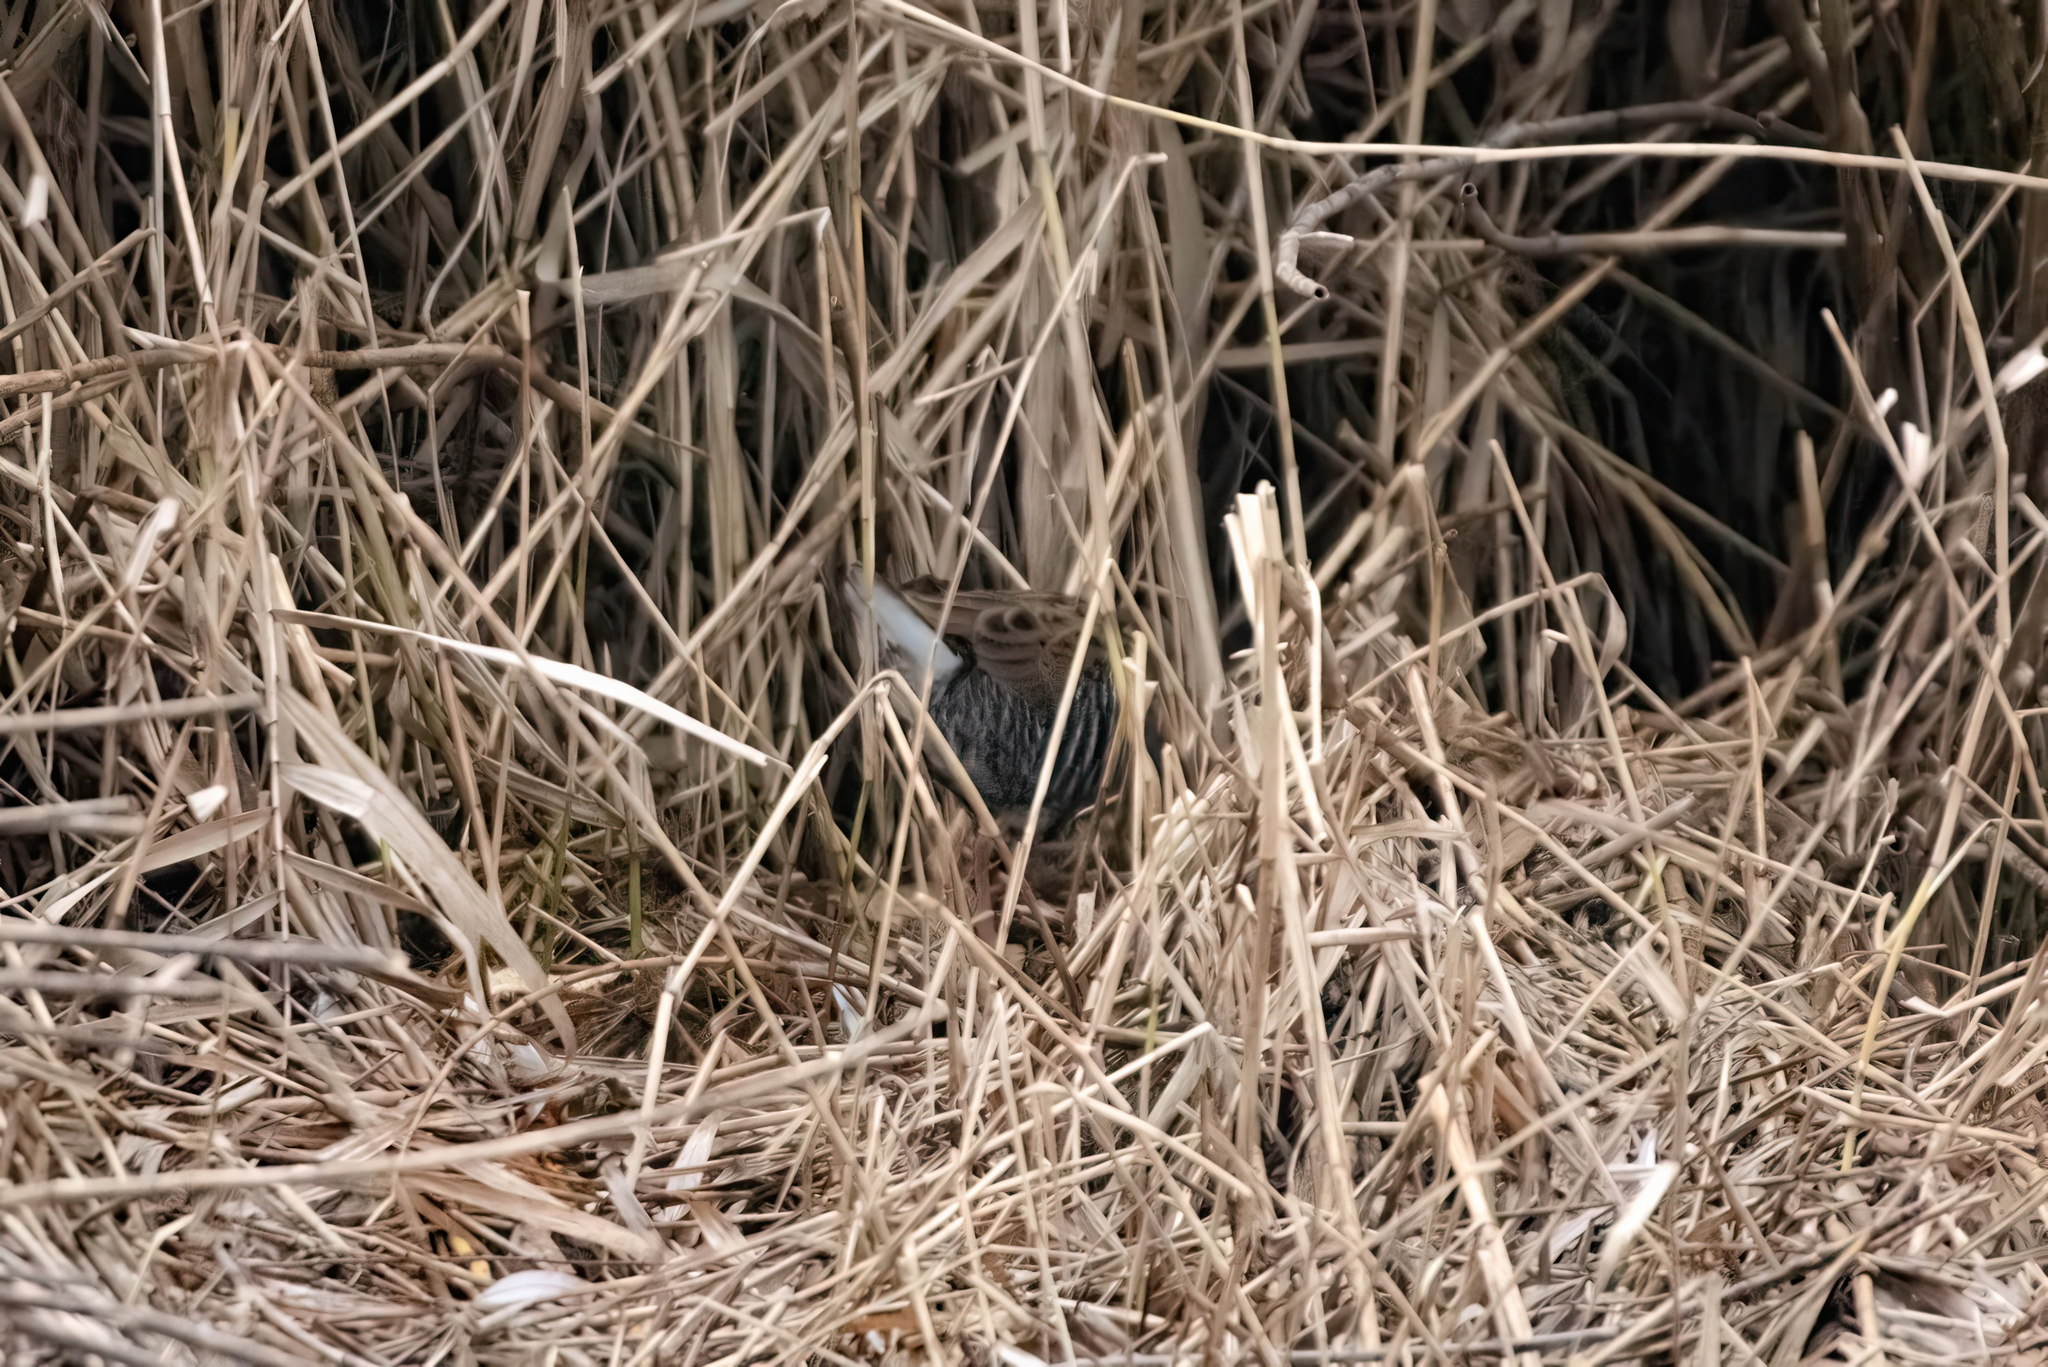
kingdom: Animalia
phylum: Chordata
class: Aves
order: Gruiformes
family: Rallidae
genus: Rallus
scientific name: Rallus aquaticus
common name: Water rail
